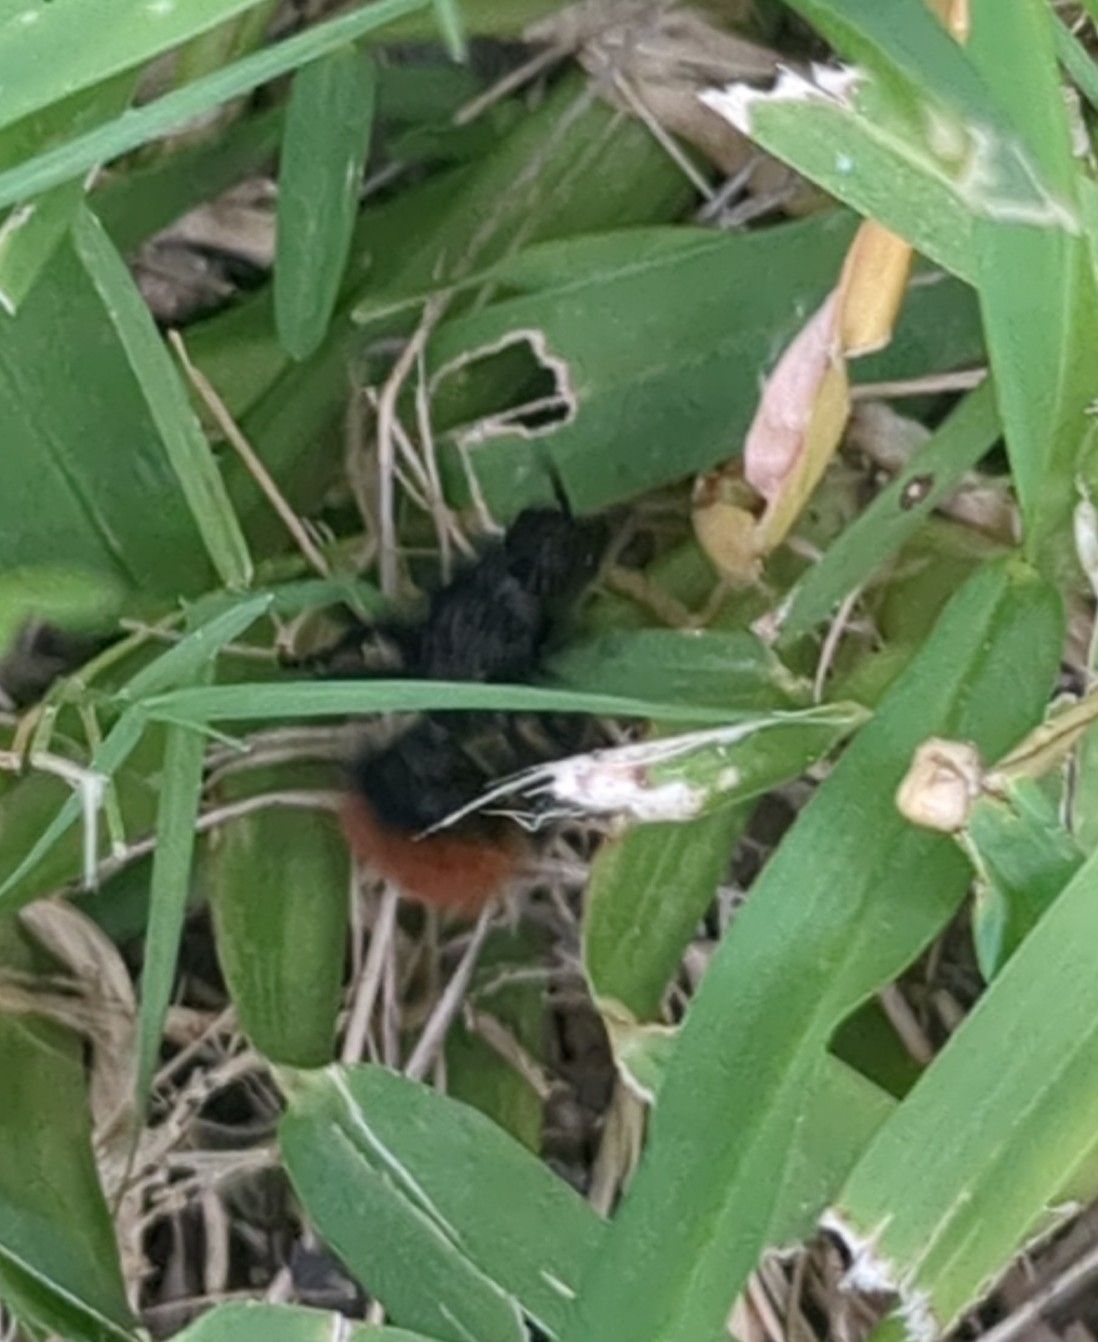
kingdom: Animalia
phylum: Arthropoda
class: Insecta
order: Hymenoptera
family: Mutillidae
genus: Dasymutilla
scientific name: Dasymutilla
